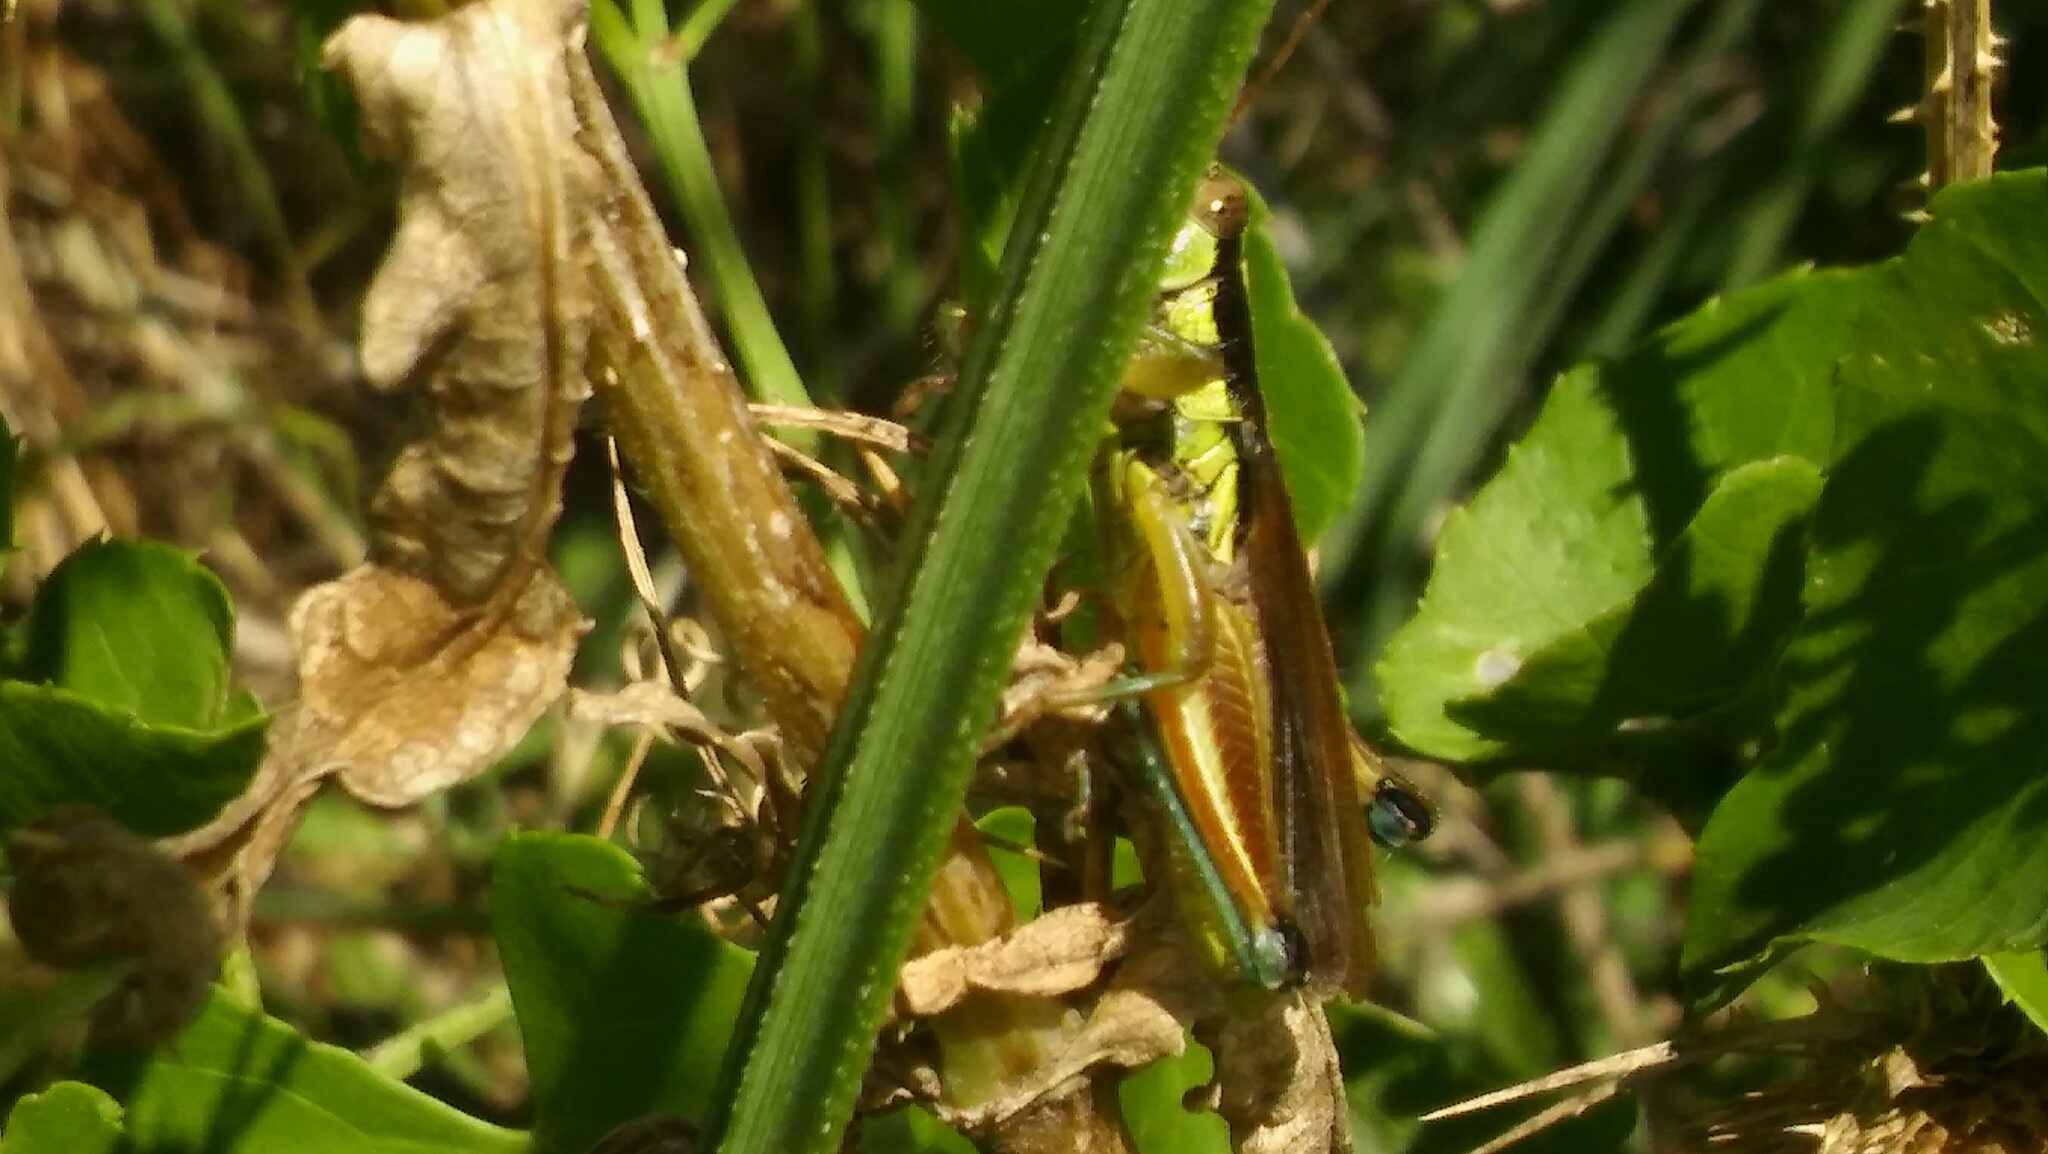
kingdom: Animalia
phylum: Arthropoda
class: Insecta
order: Orthoptera
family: Acrididae
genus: Scotussa
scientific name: Scotussa impudica
